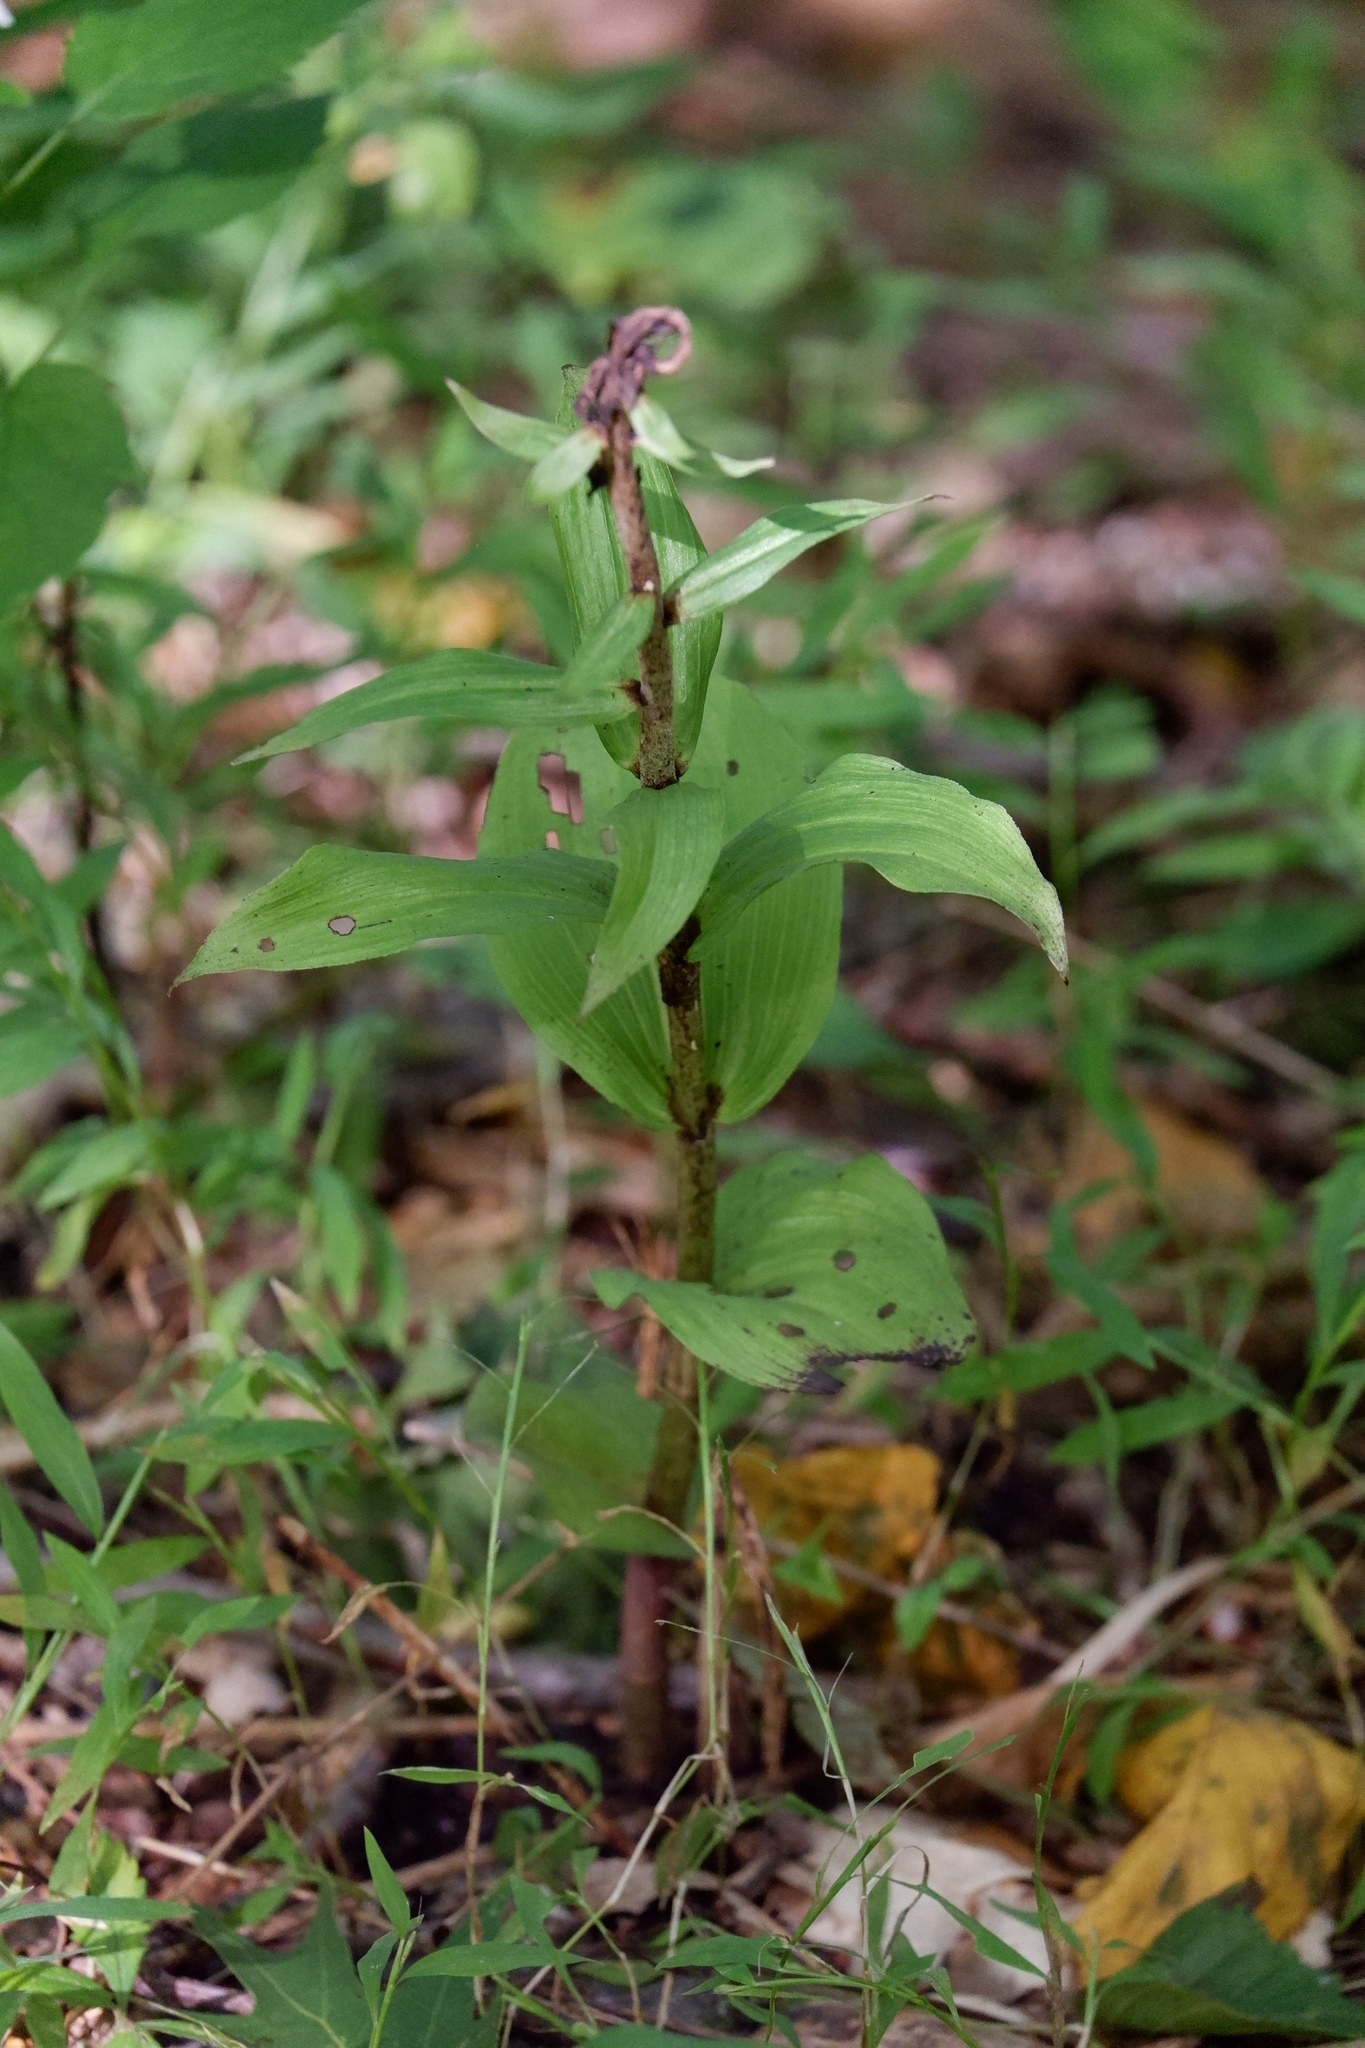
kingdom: Plantae
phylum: Tracheophyta
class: Liliopsida
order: Asparagales
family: Orchidaceae
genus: Epipactis
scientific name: Epipactis helleborine
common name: Broad-leaved helleborine
